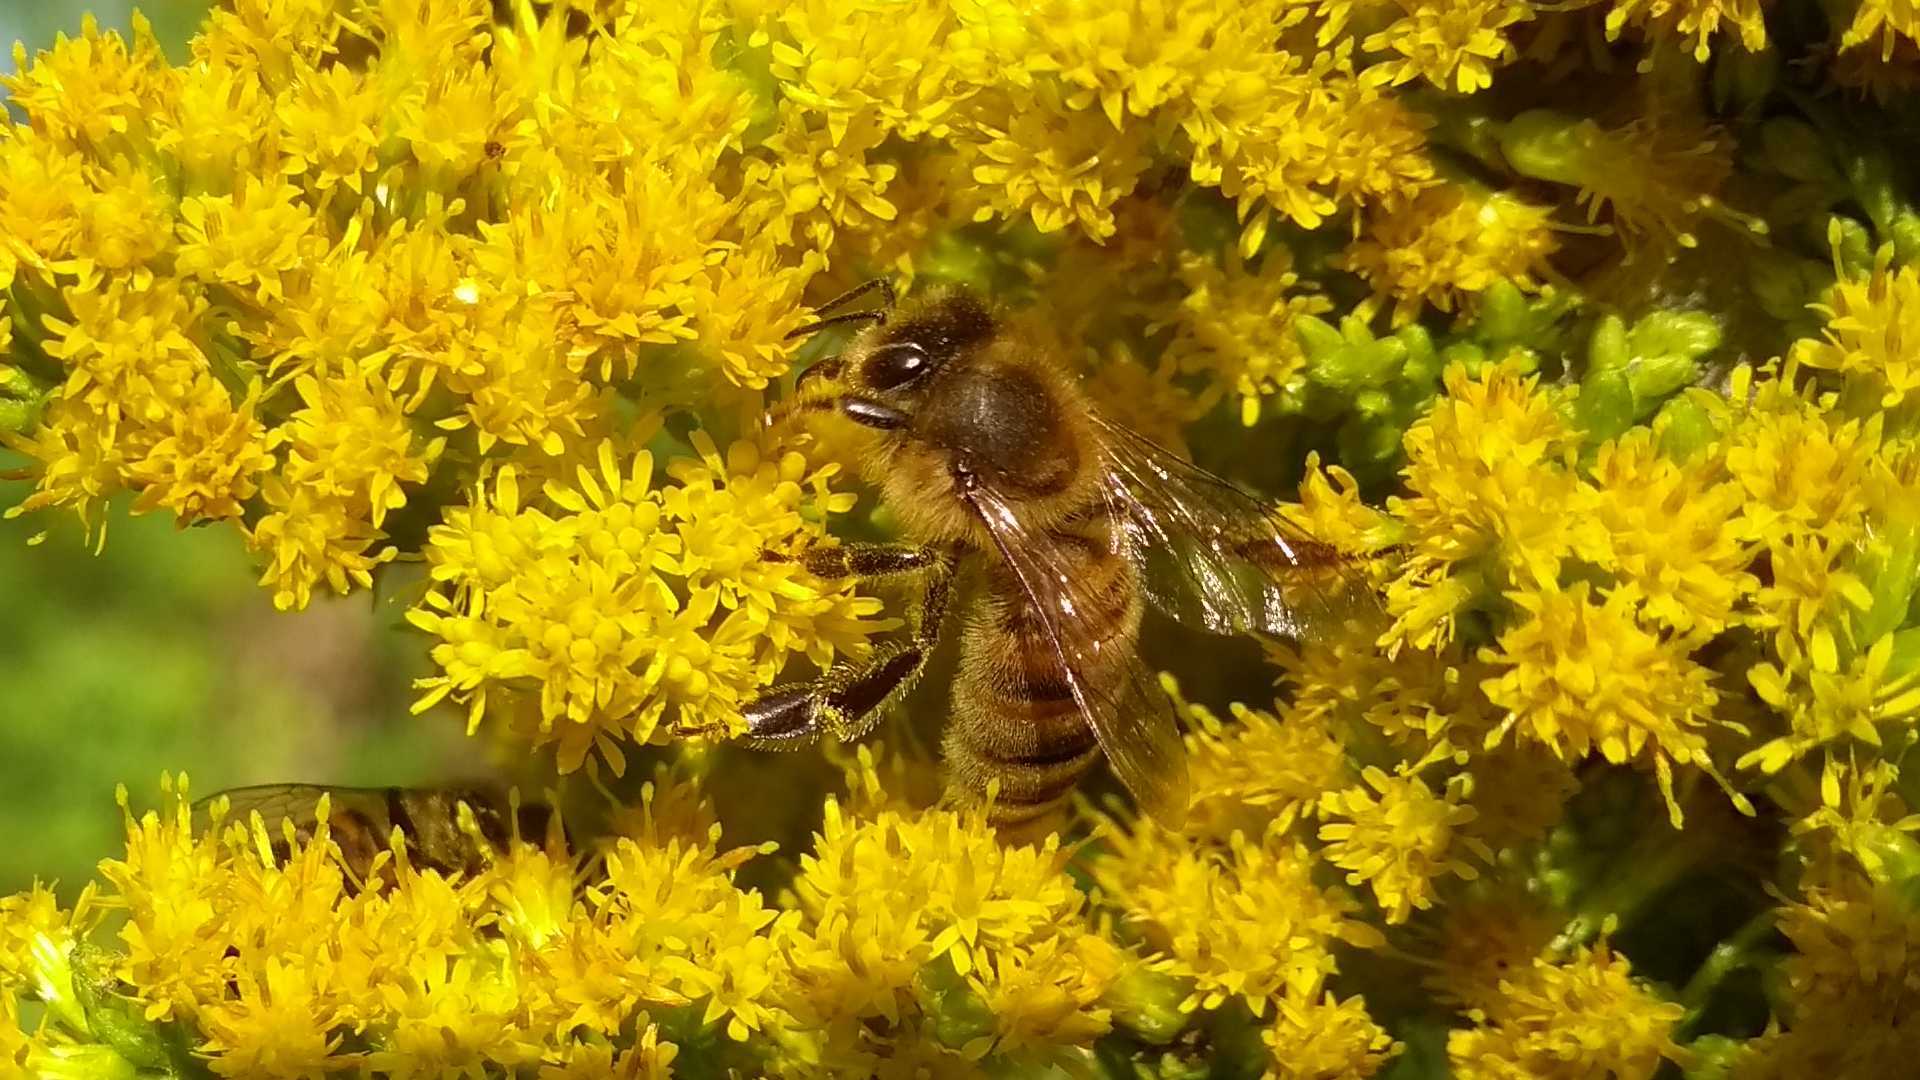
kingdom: Animalia
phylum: Arthropoda
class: Insecta
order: Hymenoptera
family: Apidae
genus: Apis
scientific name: Apis mellifera
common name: Honey bee
